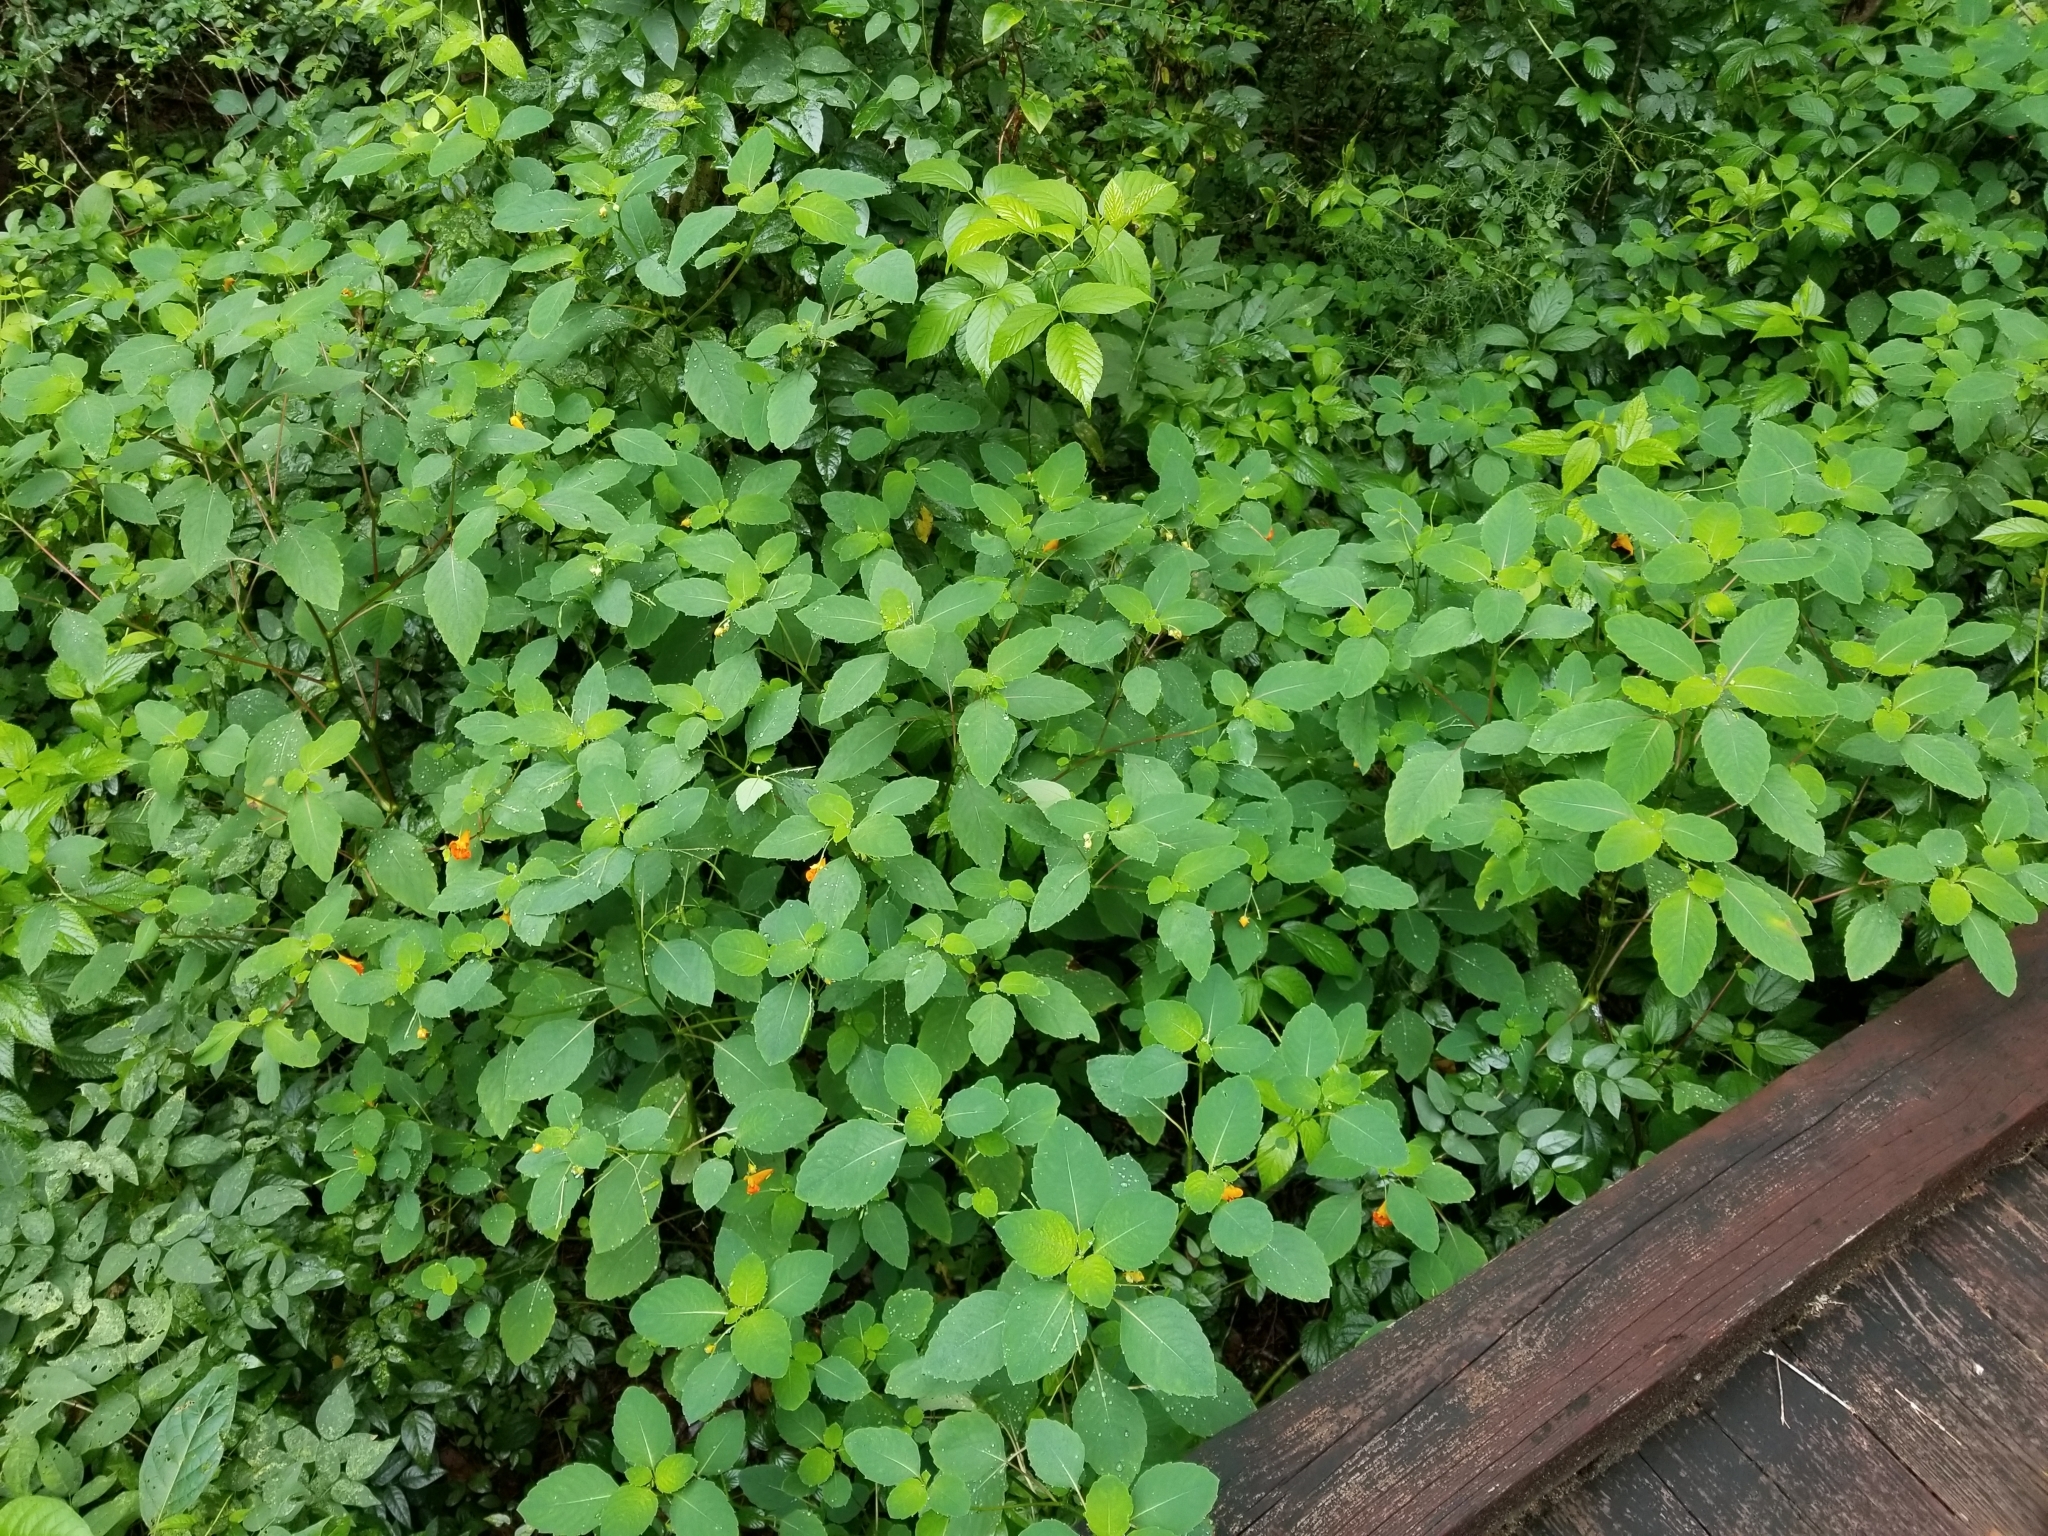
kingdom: Plantae
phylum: Tracheophyta
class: Magnoliopsida
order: Ericales
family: Balsaminaceae
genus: Impatiens
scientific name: Impatiens capensis
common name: Orange balsam
